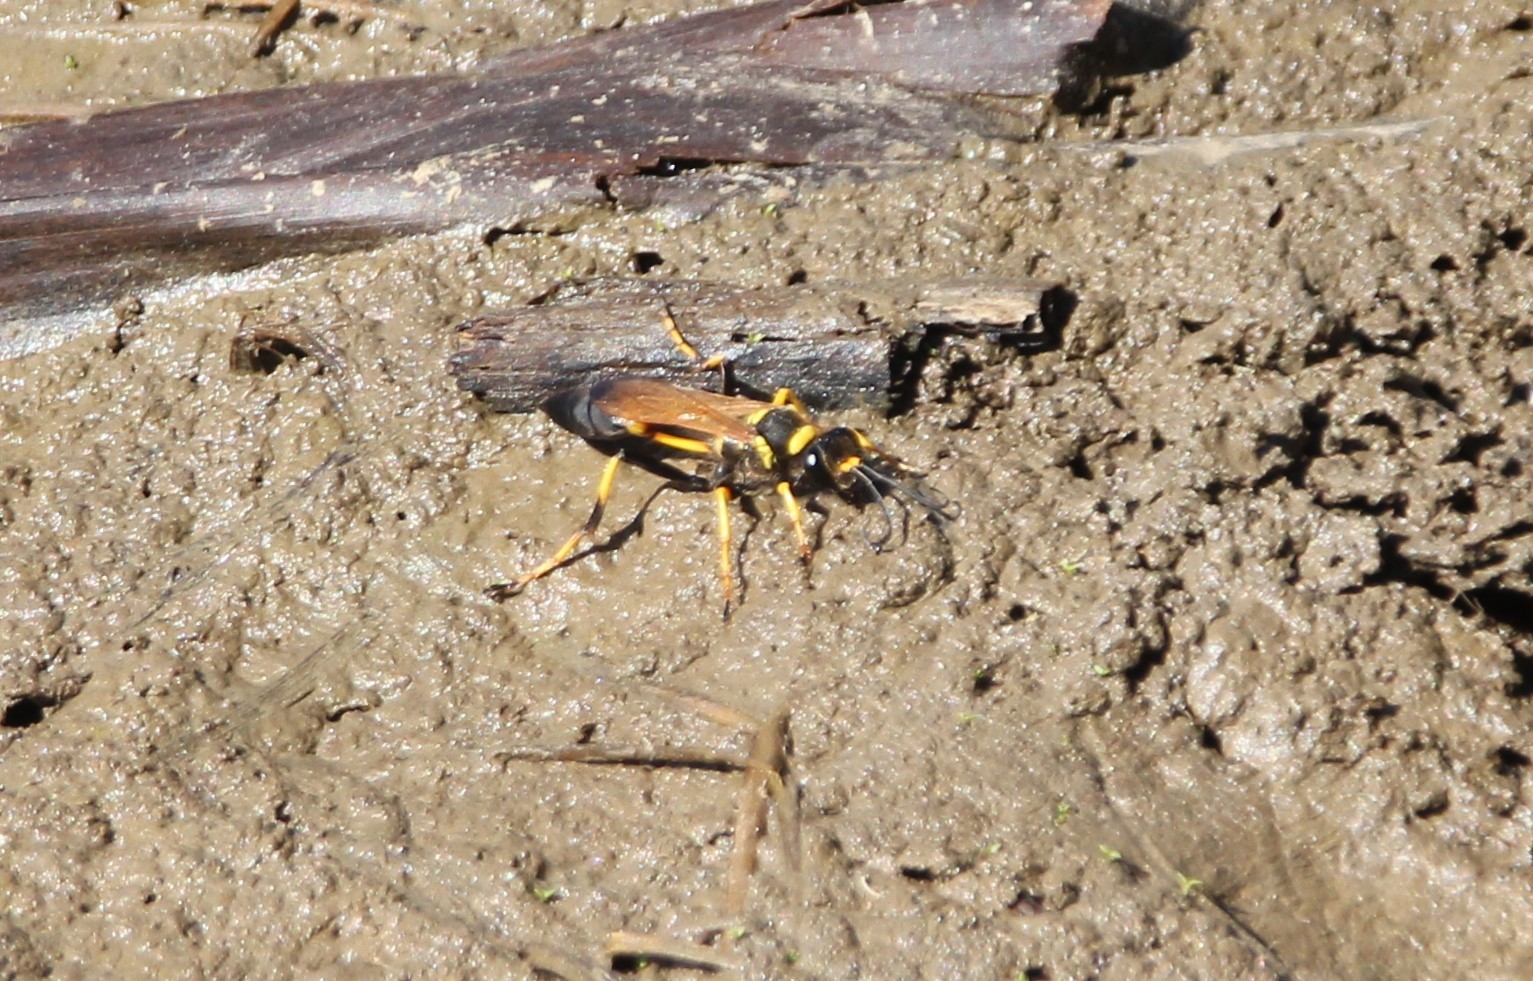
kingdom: Animalia
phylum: Arthropoda
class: Insecta
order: Hymenoptera
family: Sphecidae
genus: Sceliphron
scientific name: Sceliphron caementarium
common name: Mud dauber
